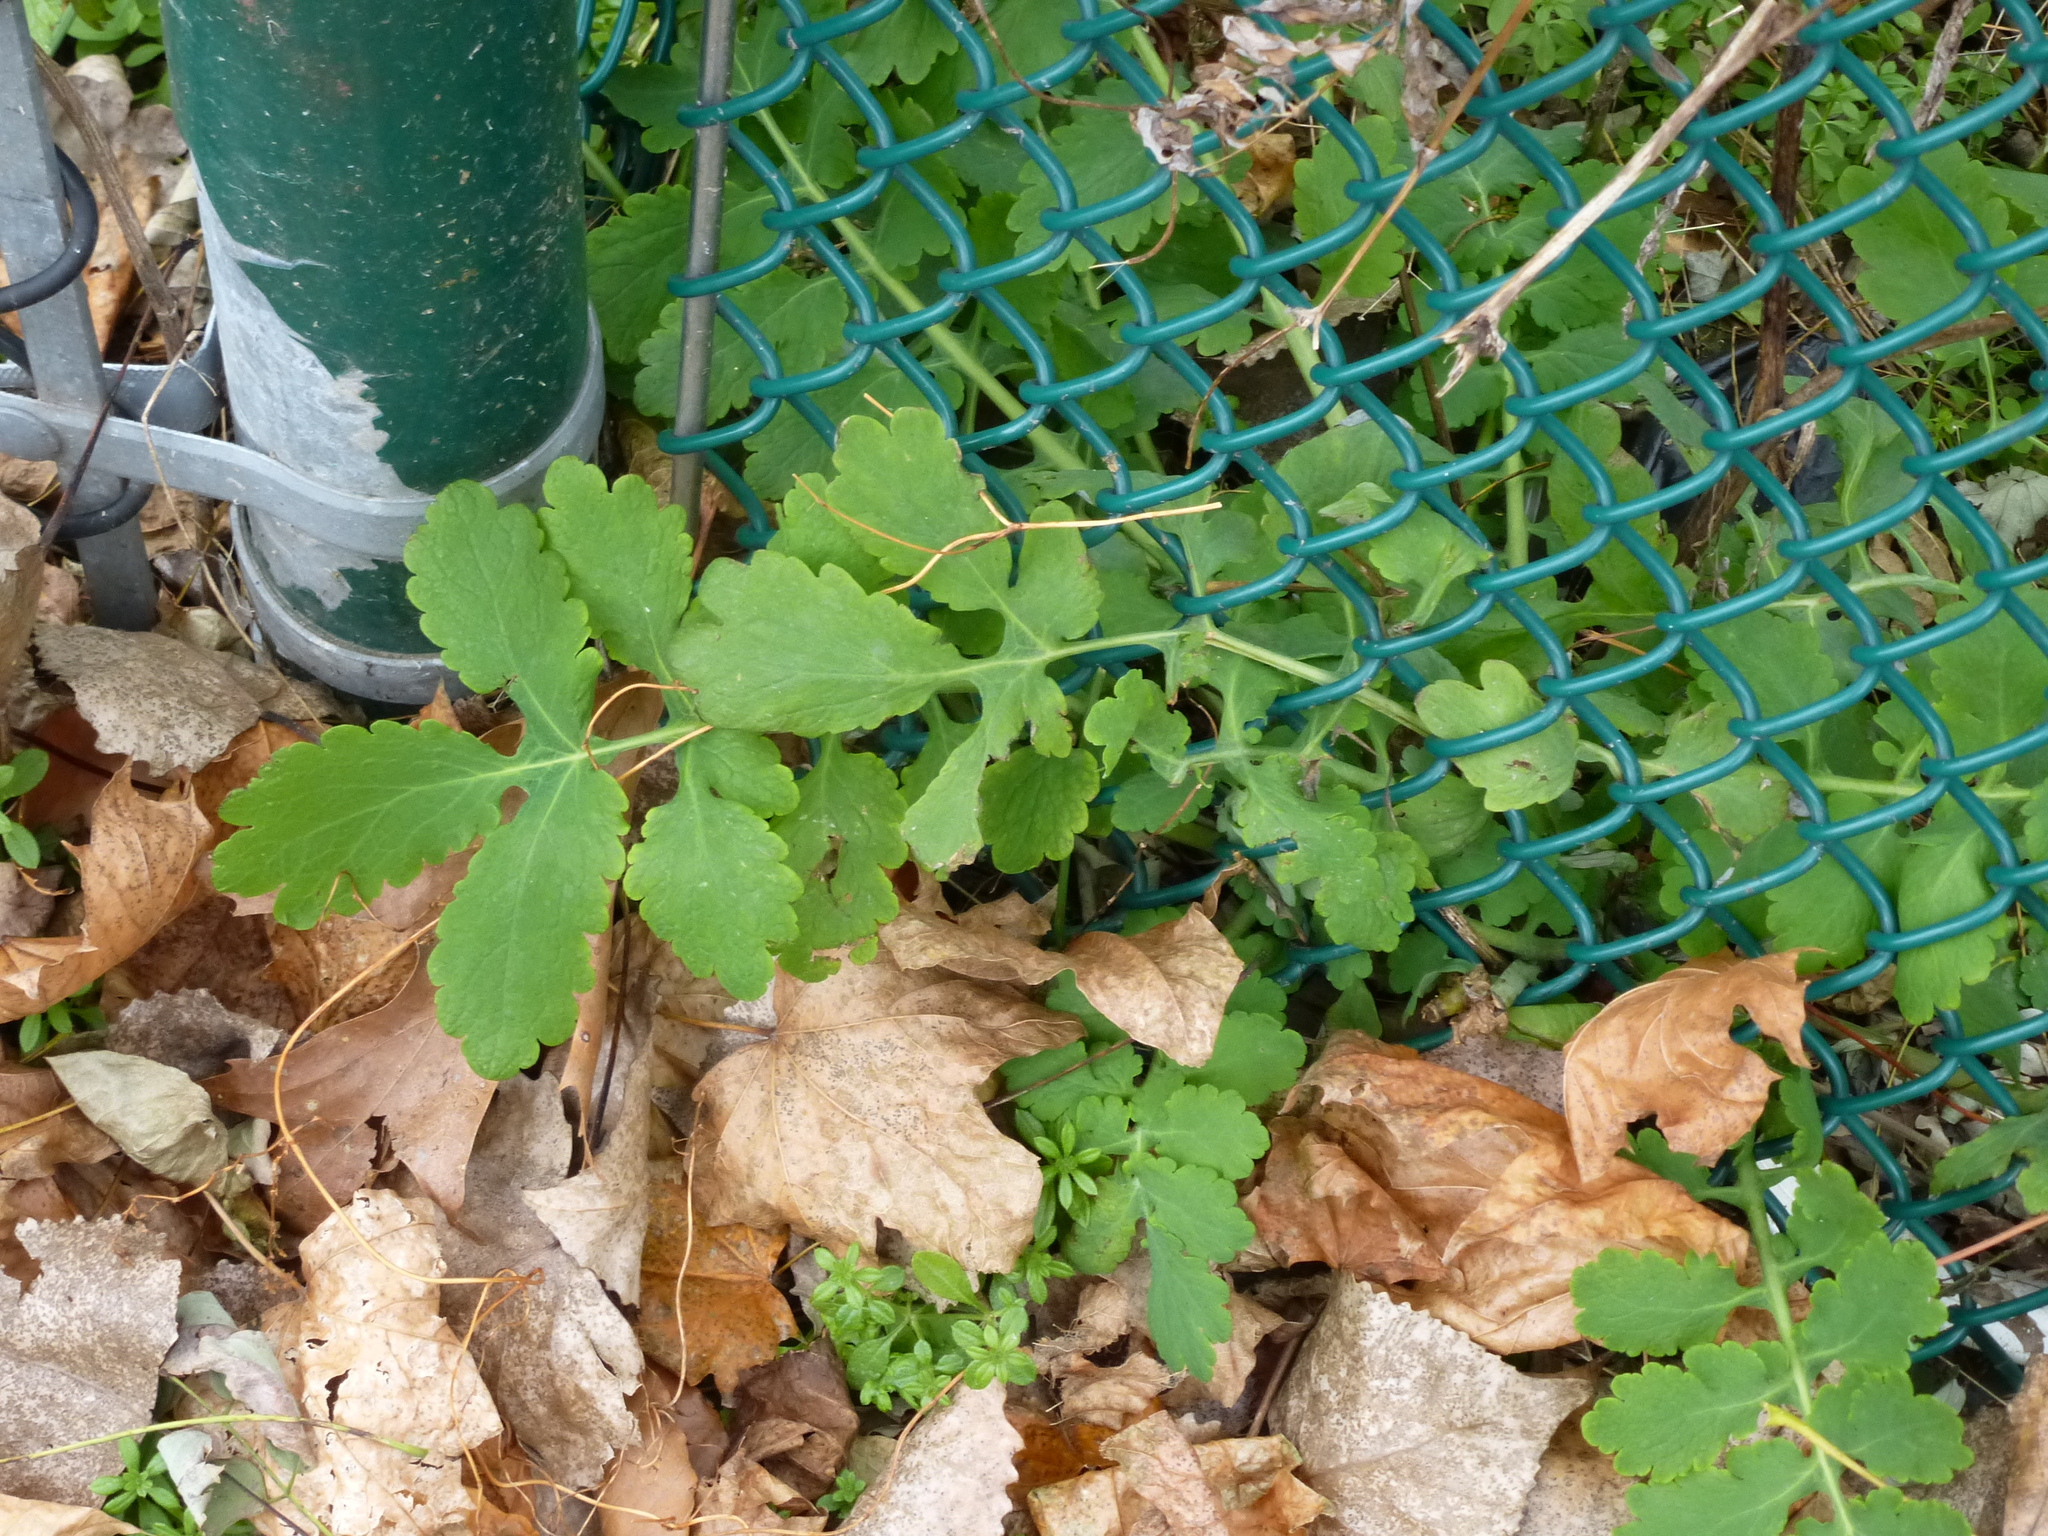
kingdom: Plantae
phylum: Tracheophyta
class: Magnoliopsida
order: Ranunculales
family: Papaveraceae
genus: Chelidonium
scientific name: Chelidonium majus
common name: Greater celandine
